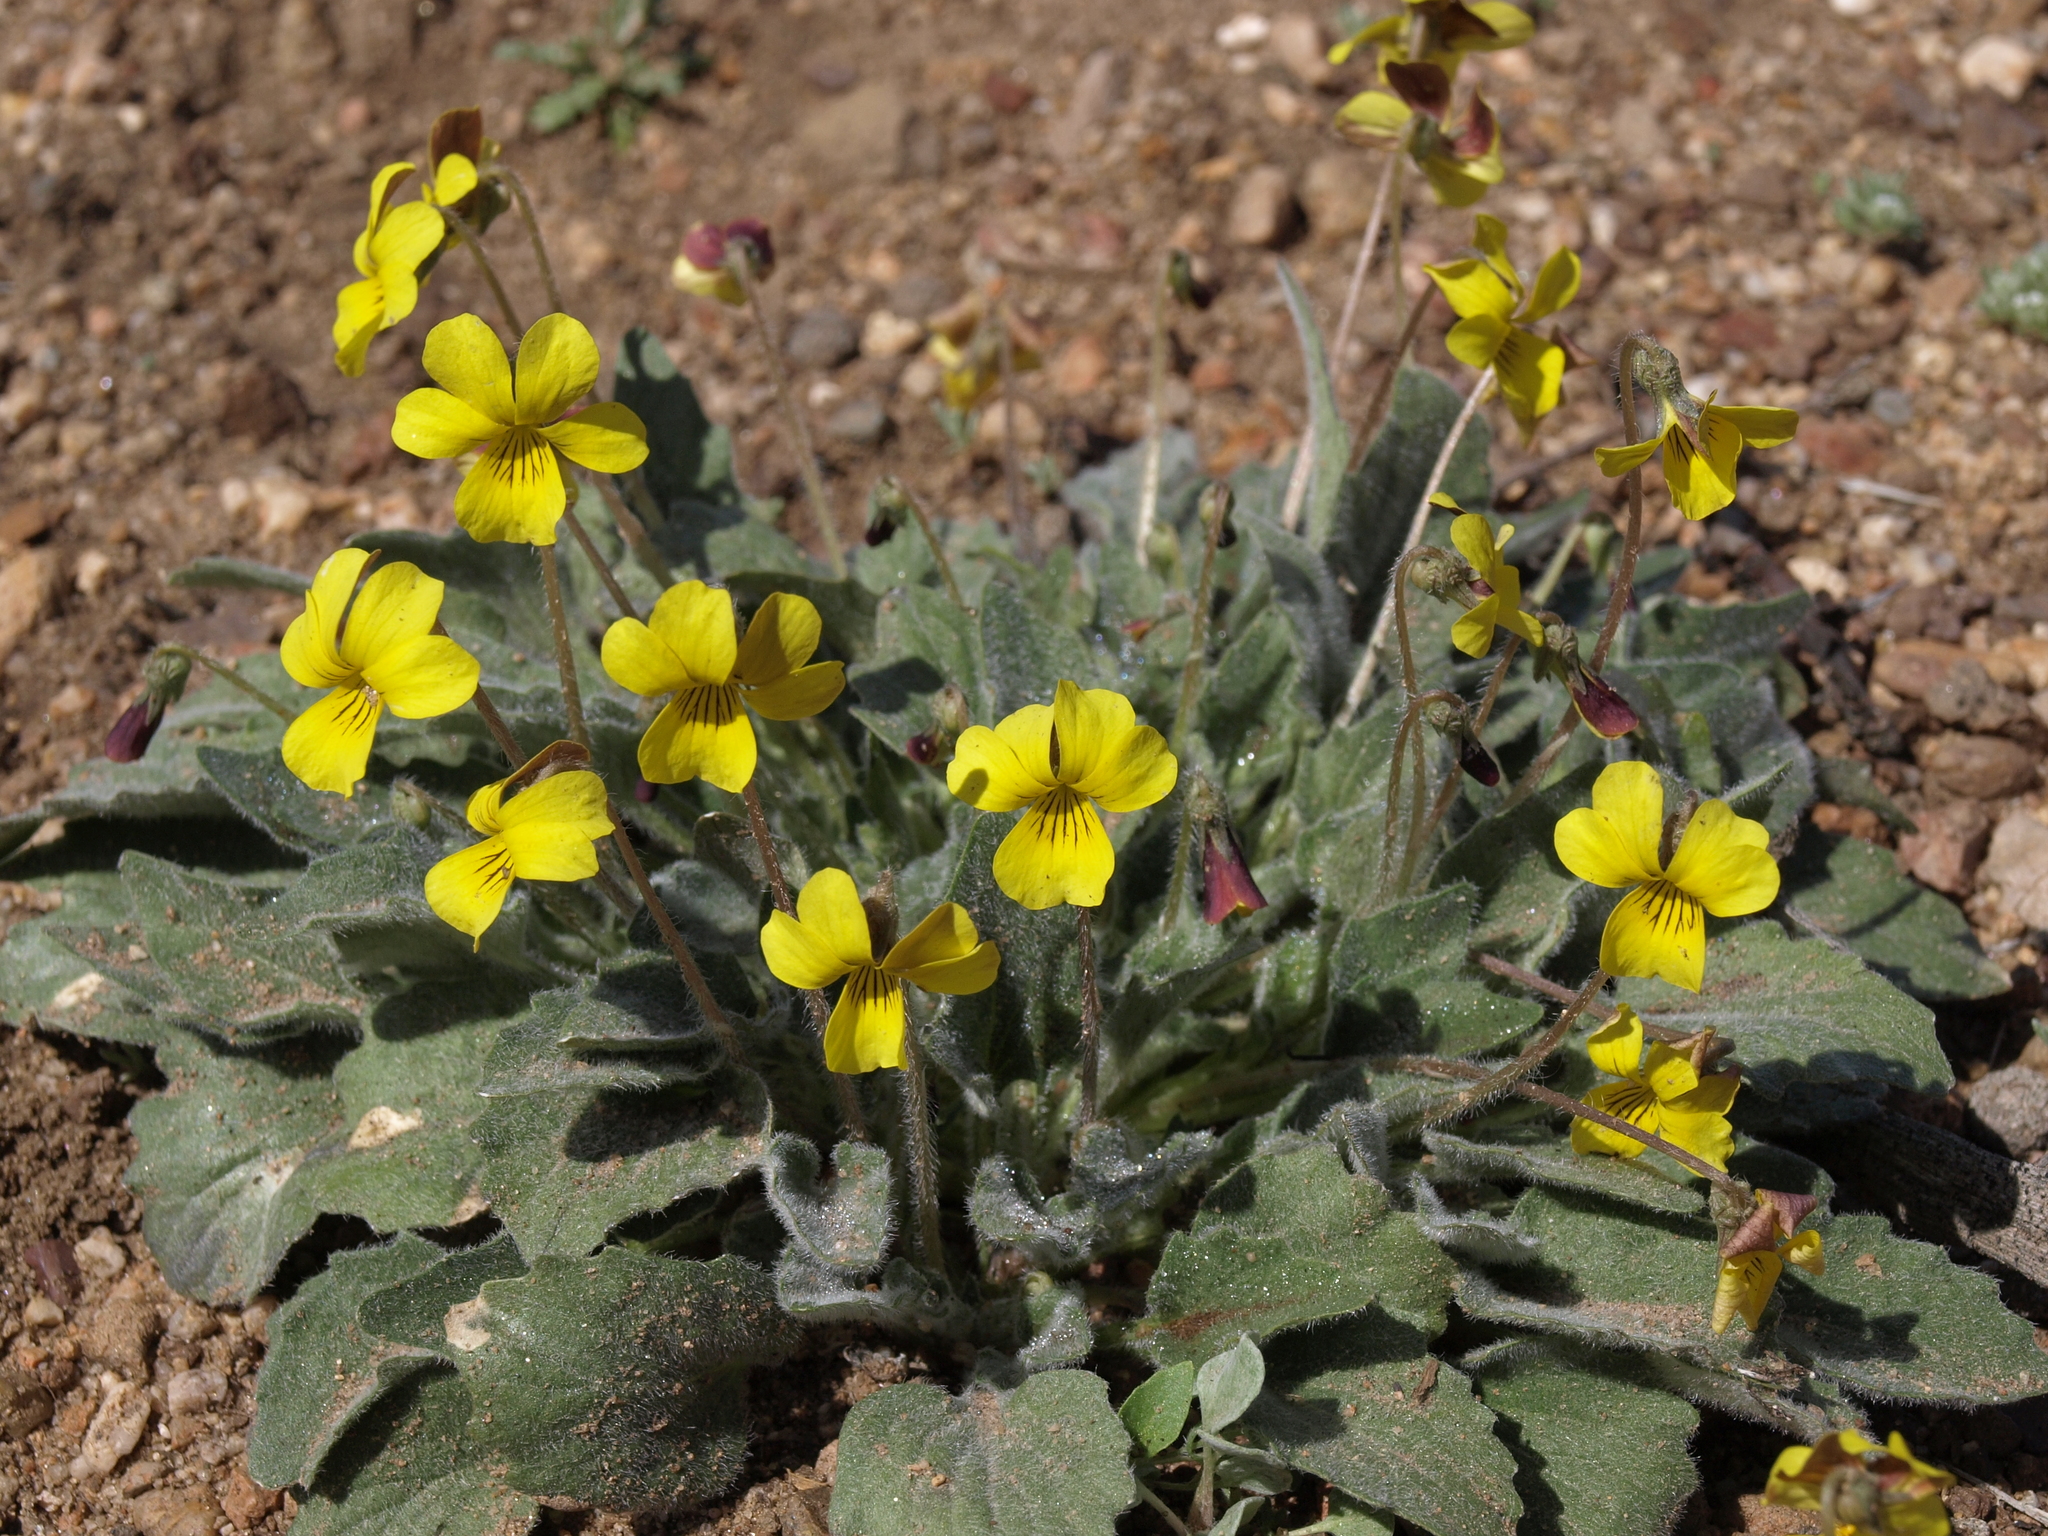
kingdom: Plantae
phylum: Tracheophyta
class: Magnoliopsida
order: Malpighiales
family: Violaceae
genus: Viola
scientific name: Viola aurea
